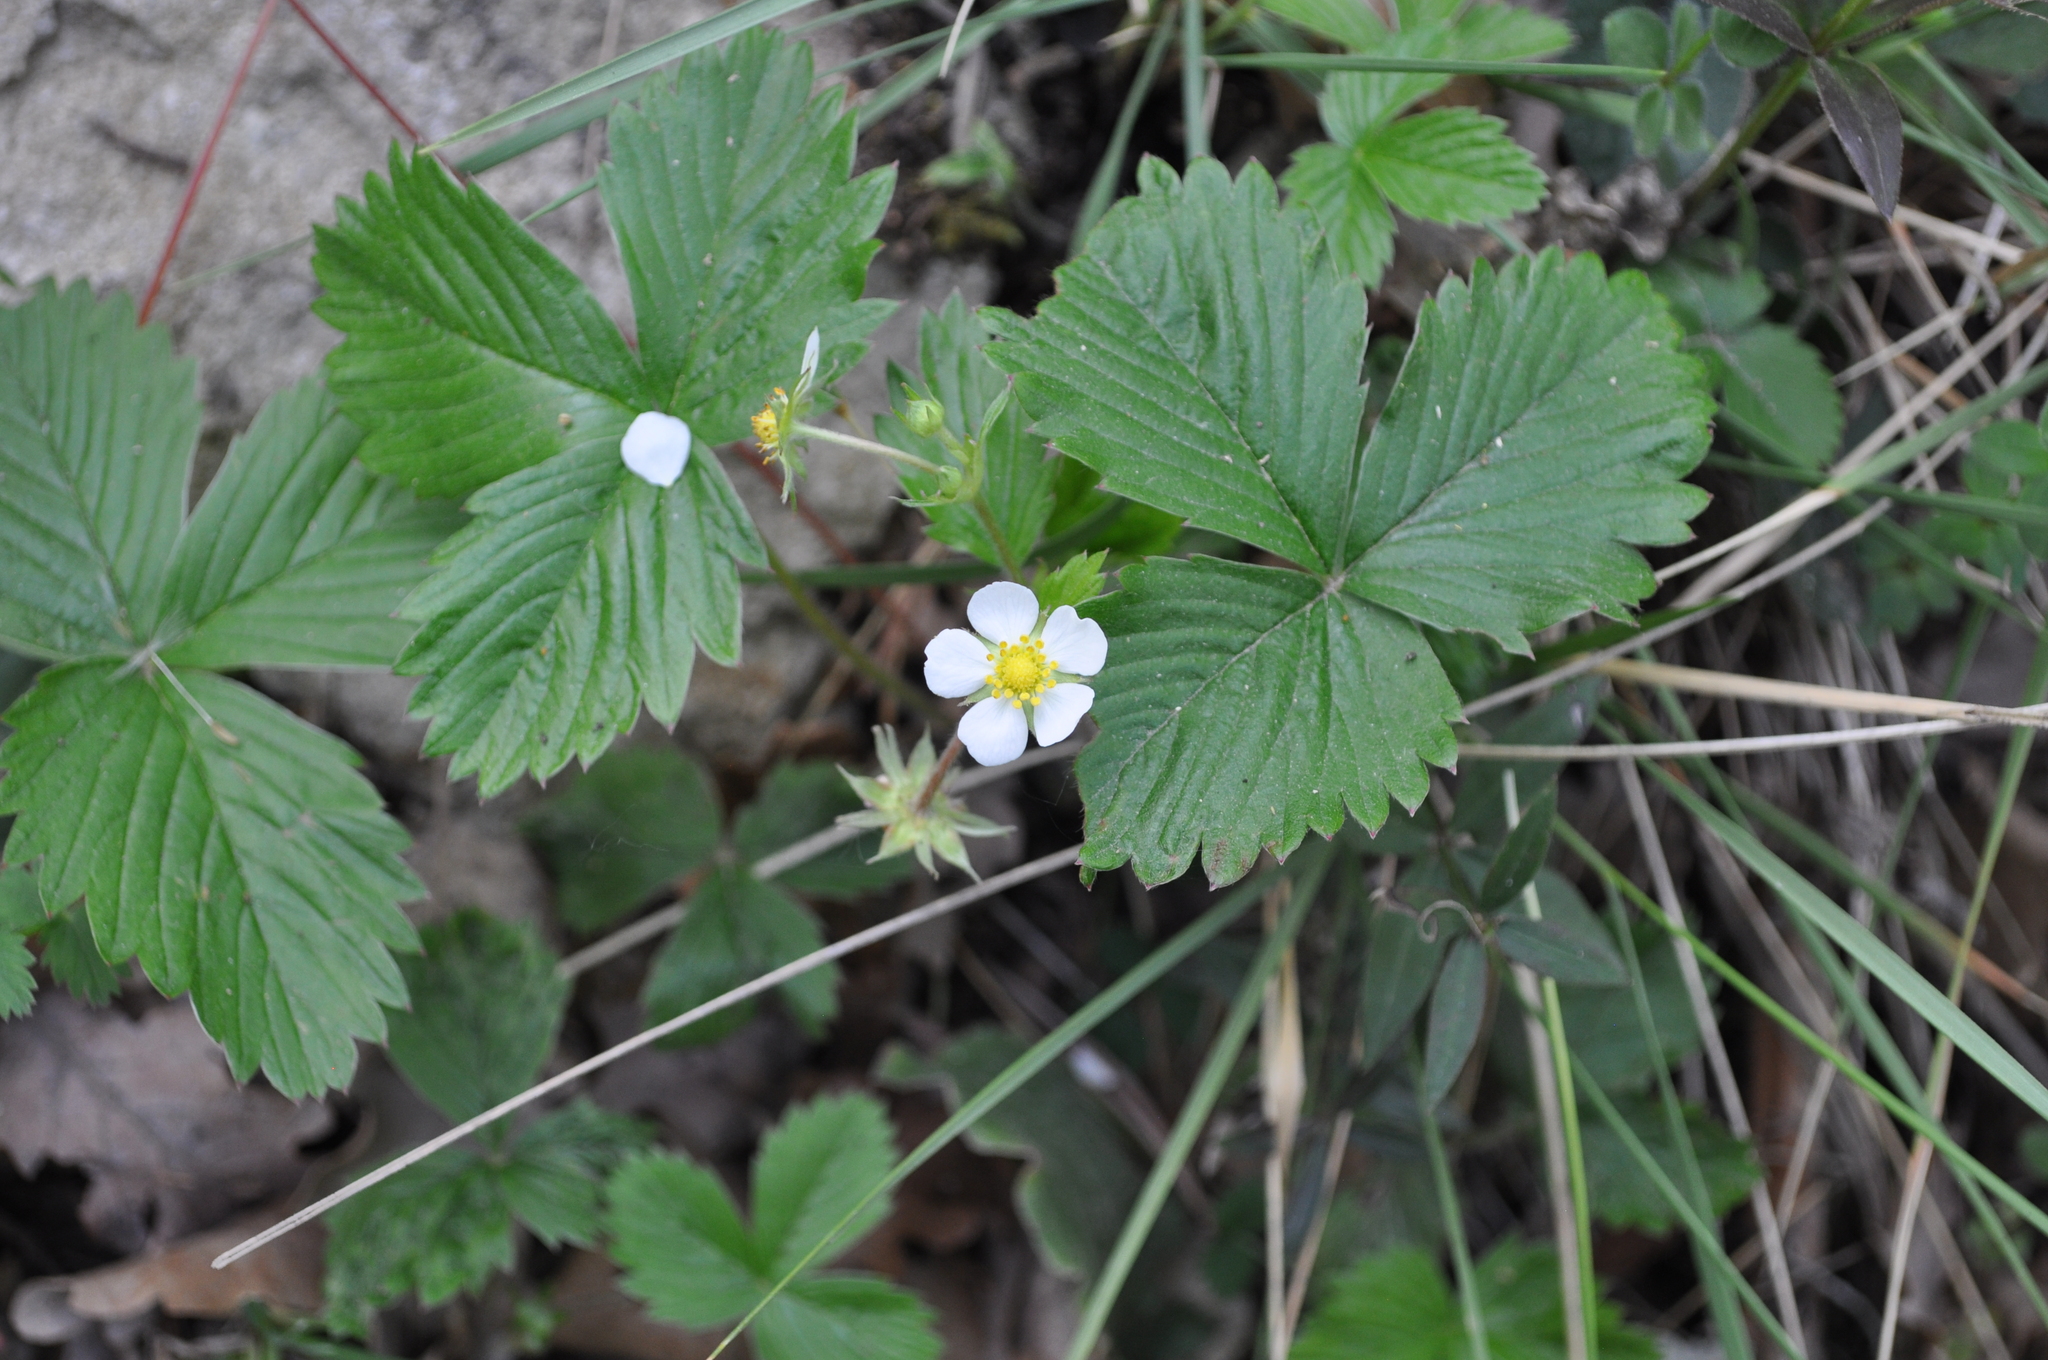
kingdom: Plantae
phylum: Tracheophyta
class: Magnoliopsida
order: Rosales
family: Rosaceae
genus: Fragaria
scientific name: Fragaria vesca
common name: Wild strawberry
